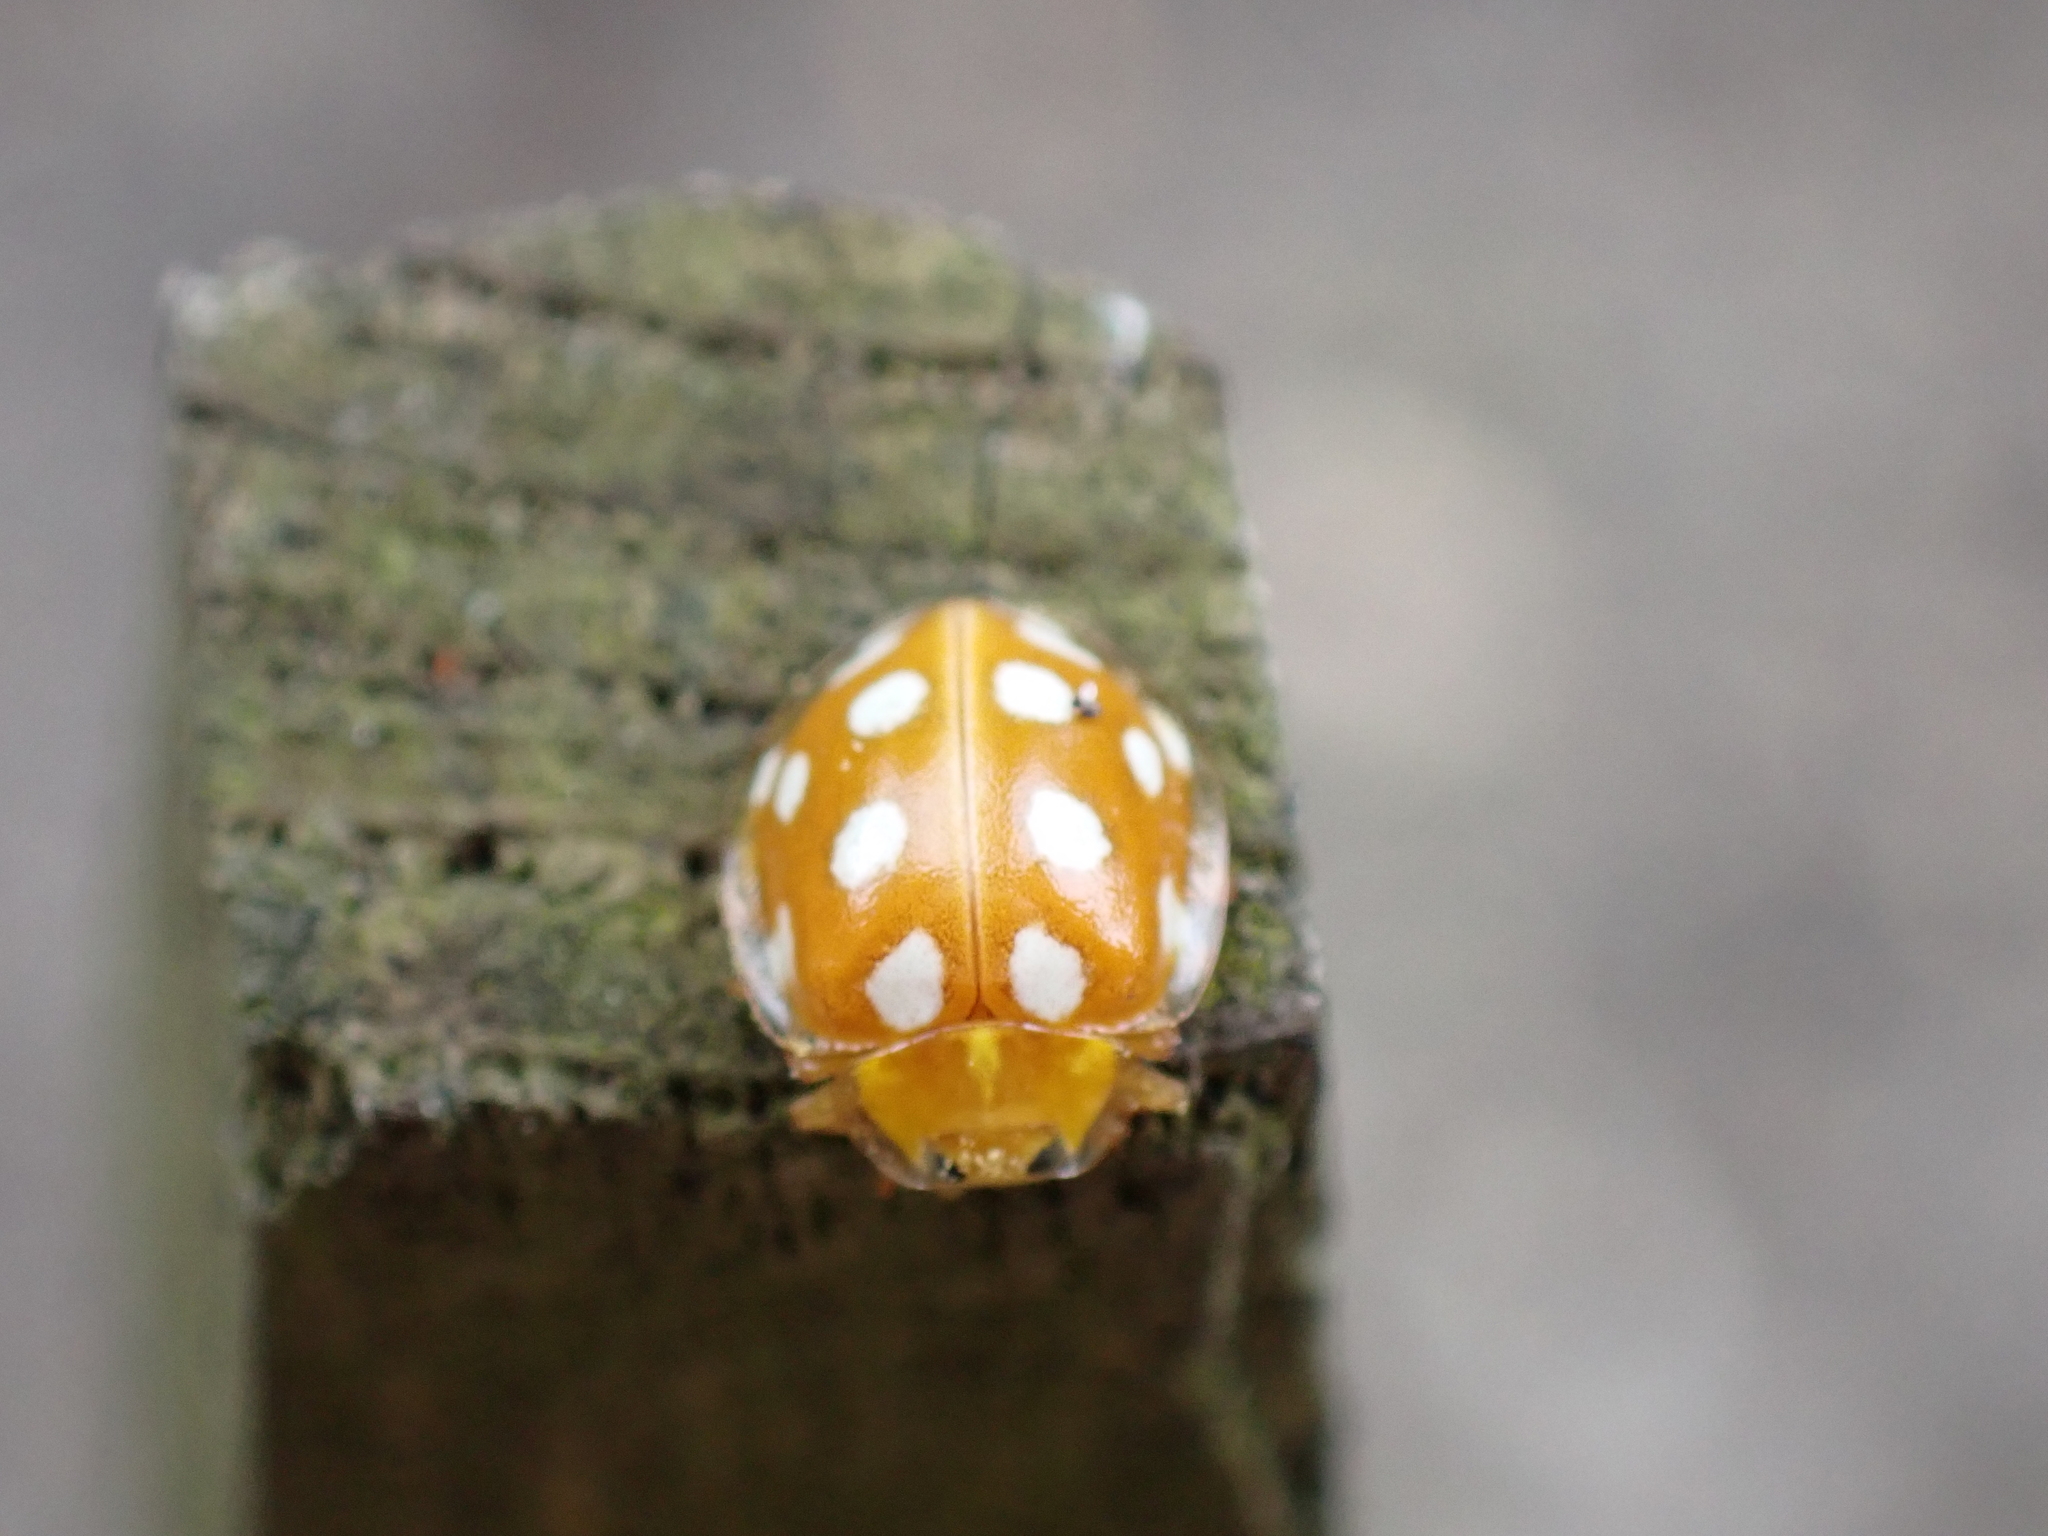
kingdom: Animalia
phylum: Arthropoda
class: Insecta
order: Coleoptera
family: Coccinellidae
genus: Halyzia
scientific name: Halyzia sedecimguttata
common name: Orange ladybird
